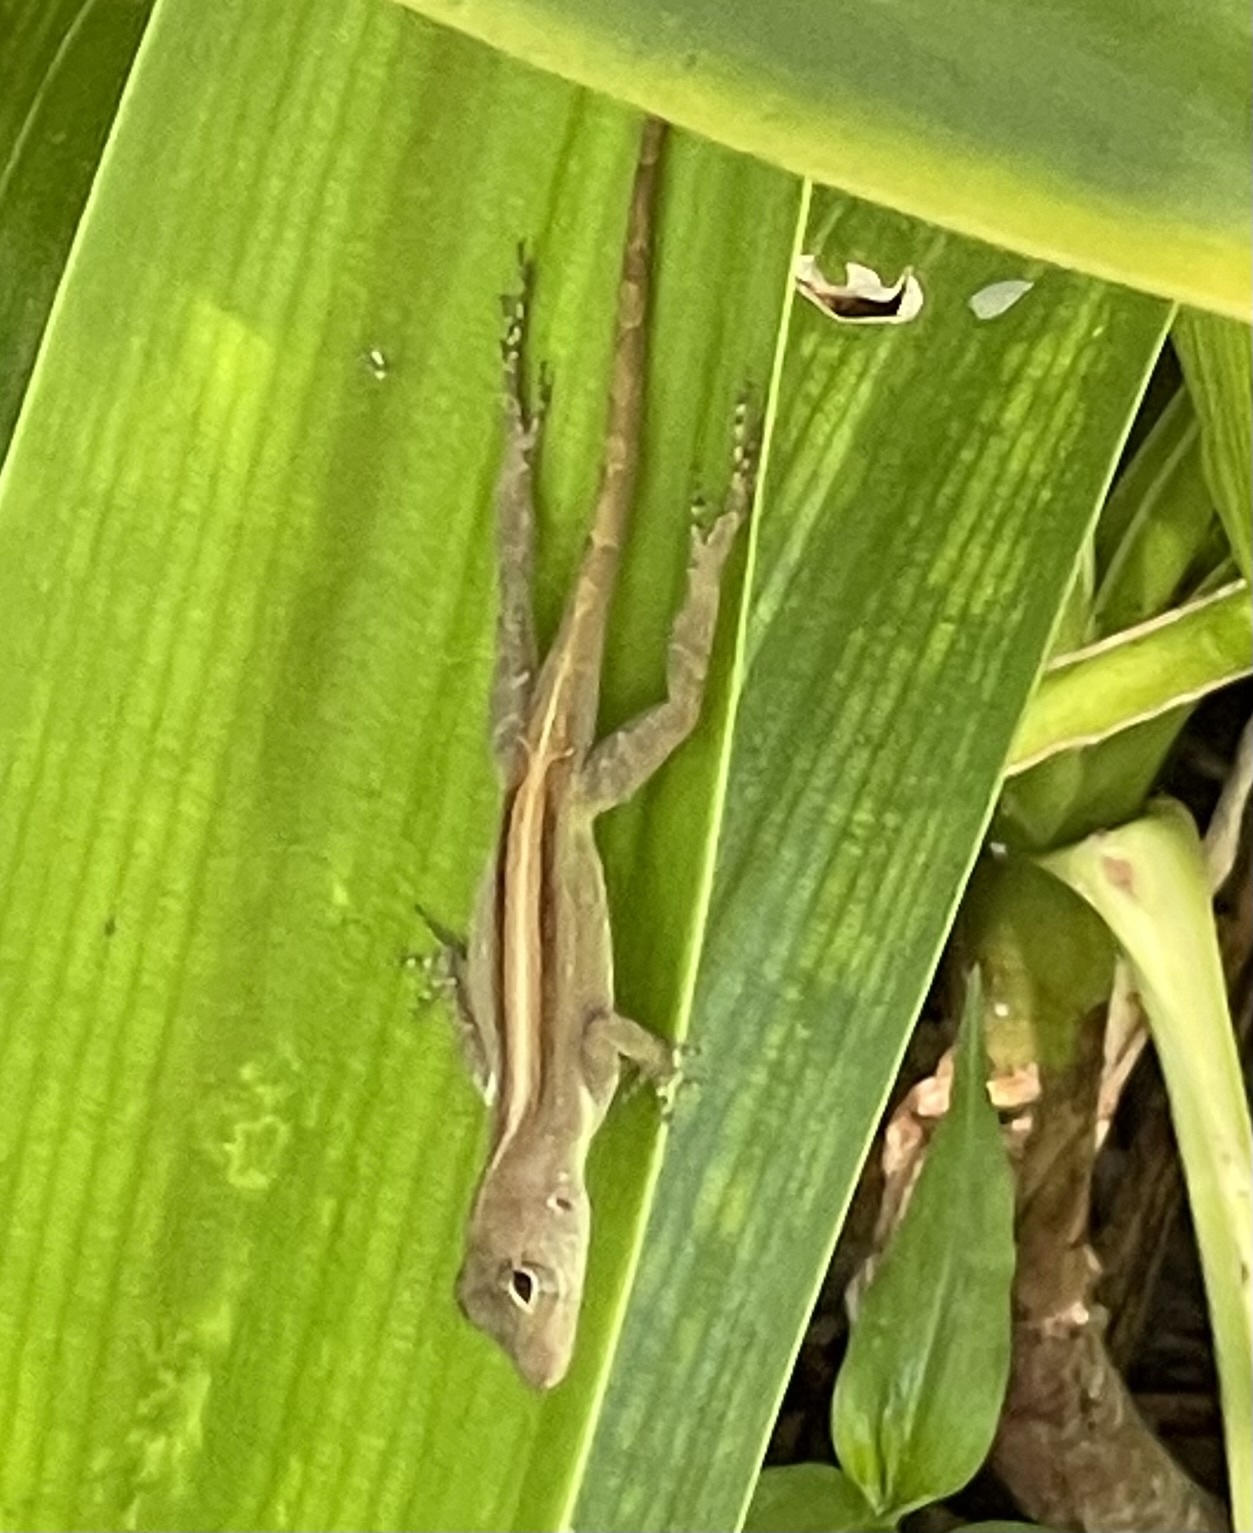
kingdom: Animalia
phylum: Chordata
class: Squamata
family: Dactyloidae
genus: Anolis
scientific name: Anolis cristatellus
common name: Crested anole
